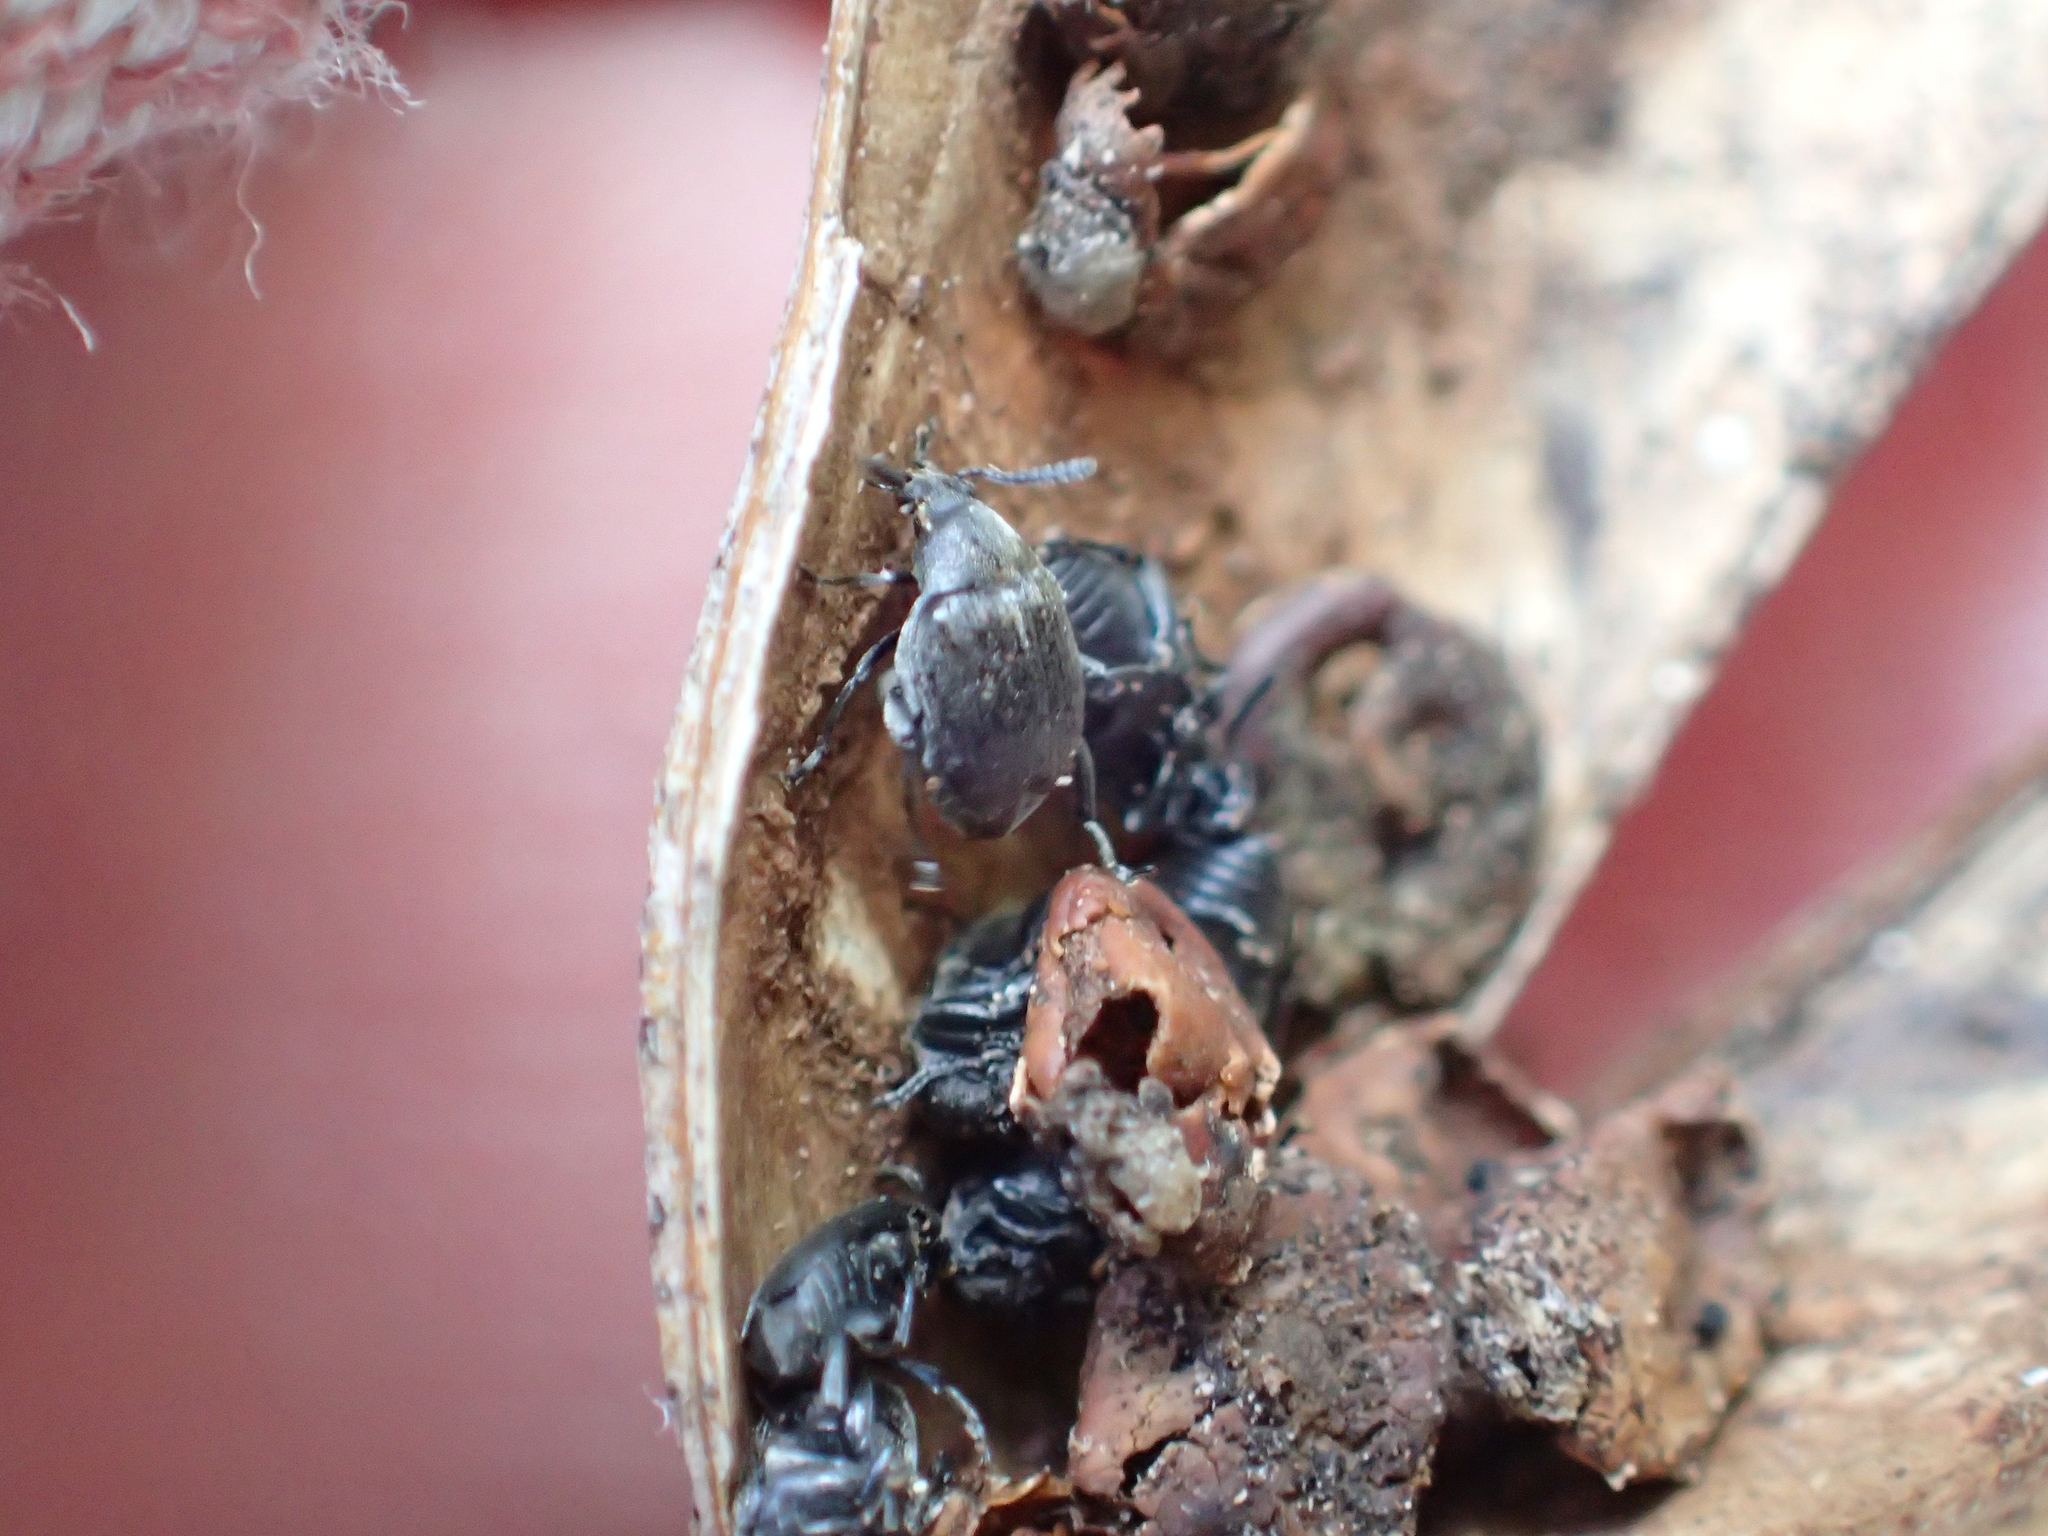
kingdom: Animalia
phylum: Arthropoda
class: Insecta
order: Coleoptera
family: Chrysomelidae
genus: Bruchidius
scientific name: Bruchidius villosus
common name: Scotch broom bruchid
